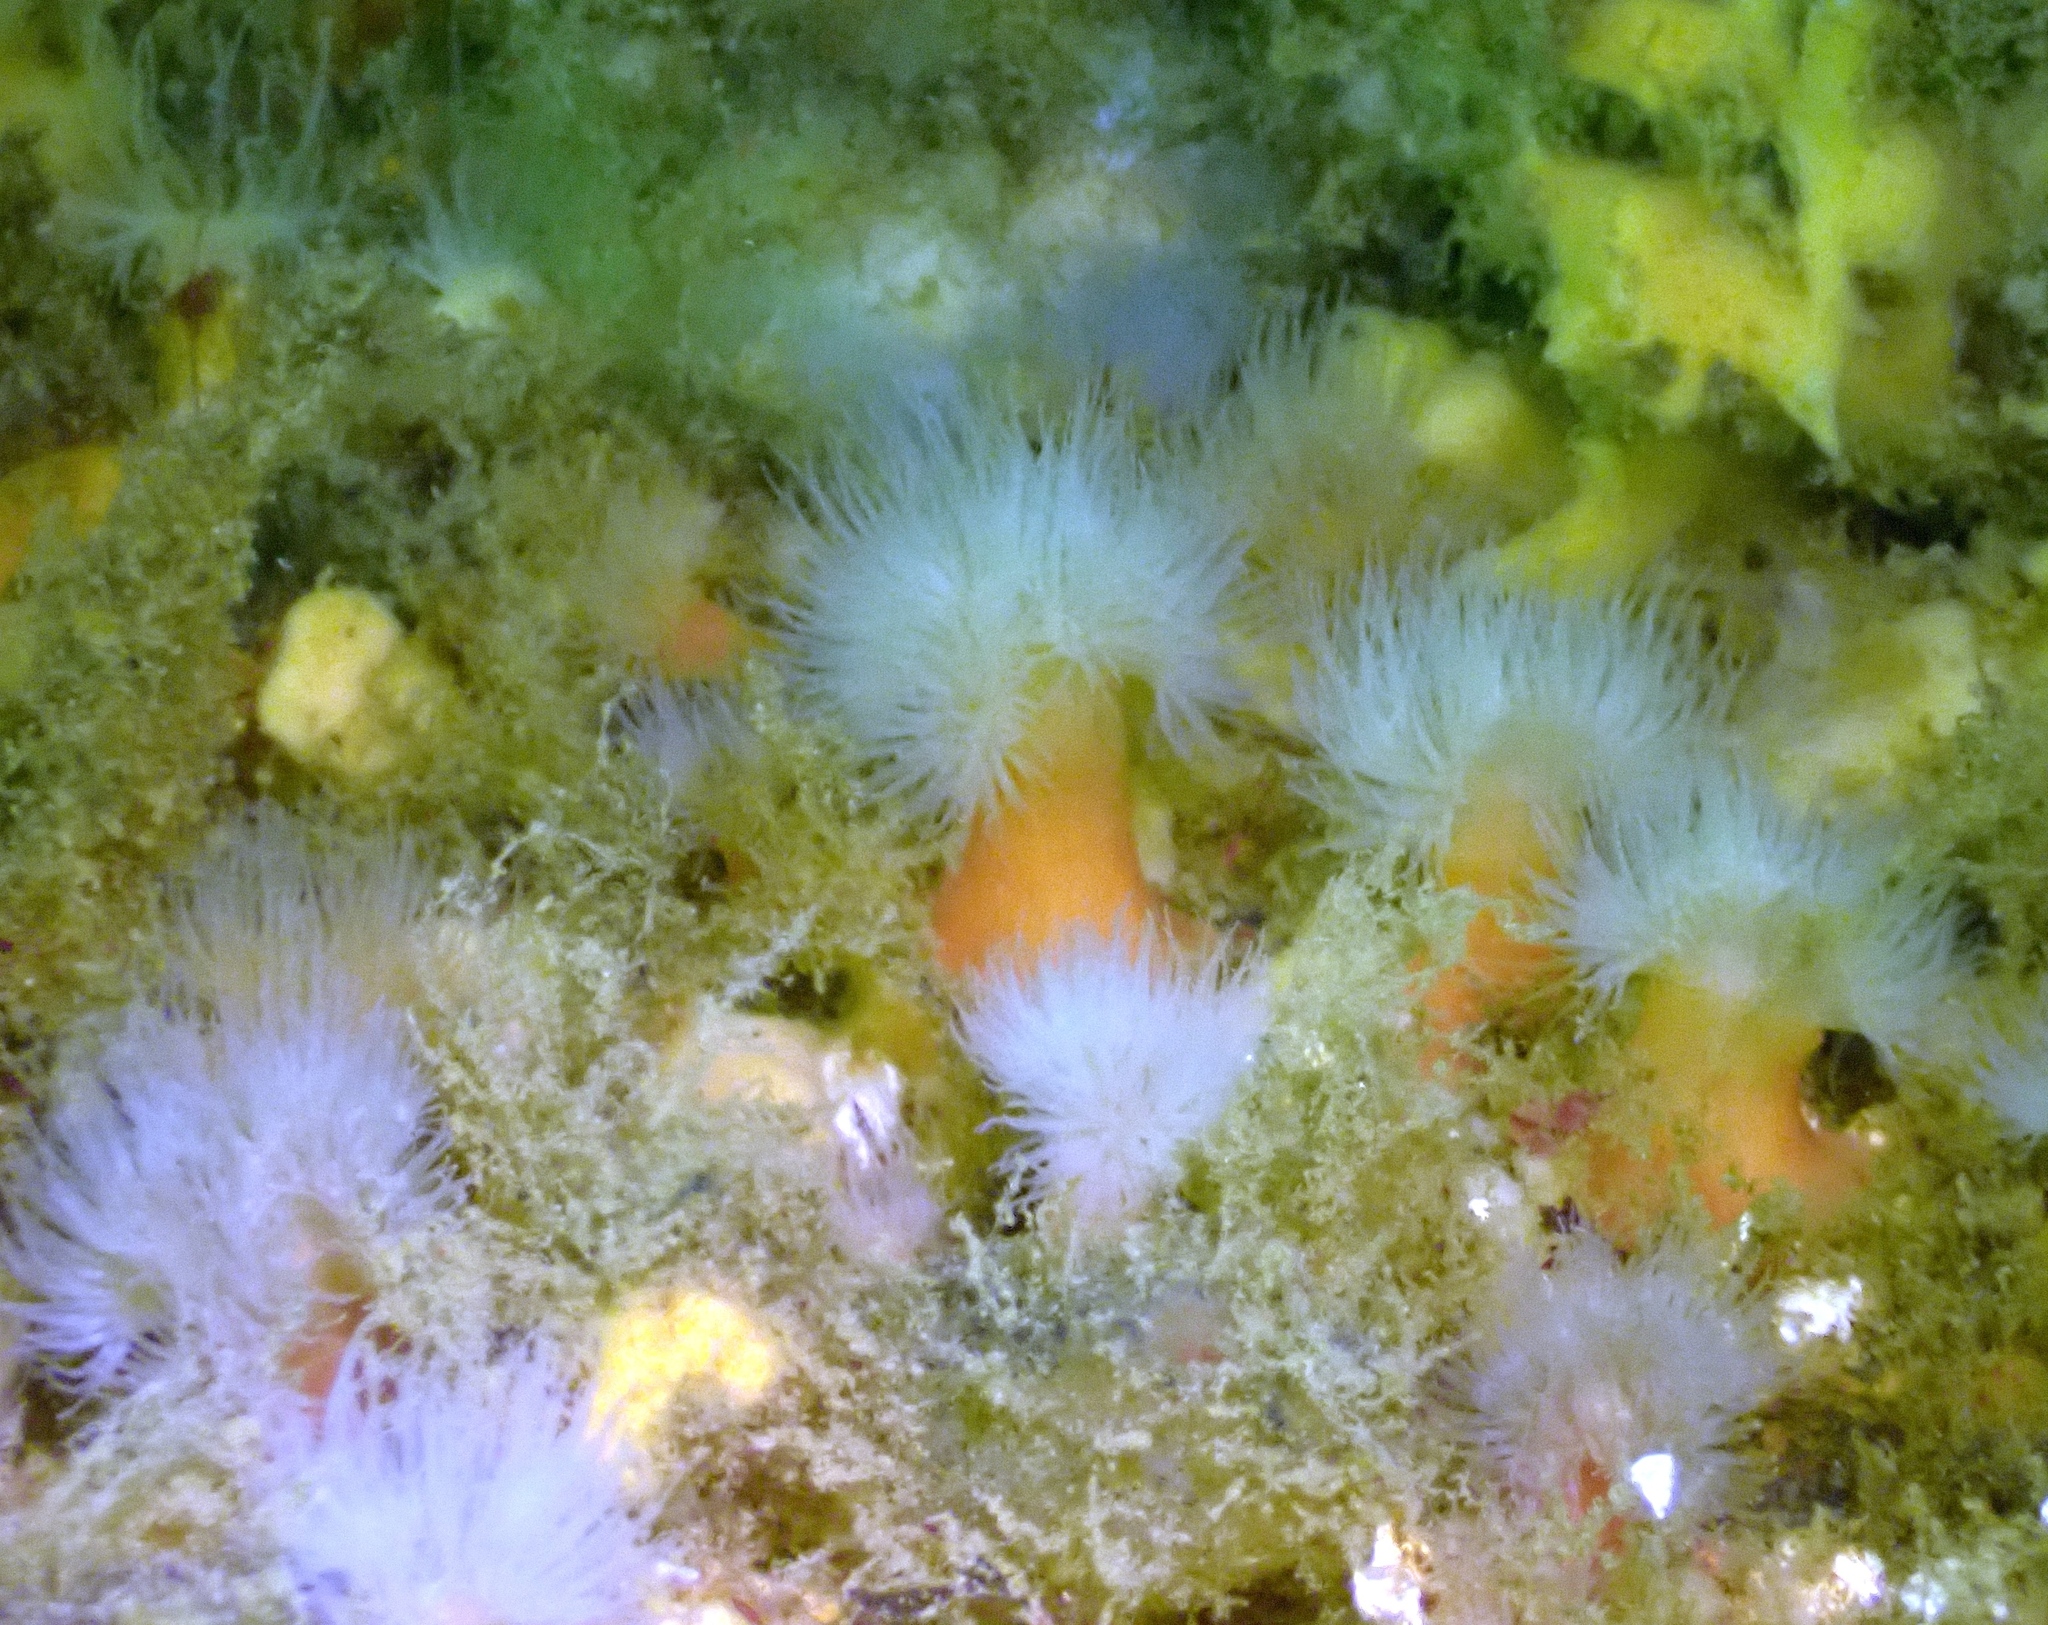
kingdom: Animalia
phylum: Cnidaria
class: Anthozoa
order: Actiniaria
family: Metridiidae
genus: Metridium
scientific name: Metridium senile
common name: Clonal plumose anemone
